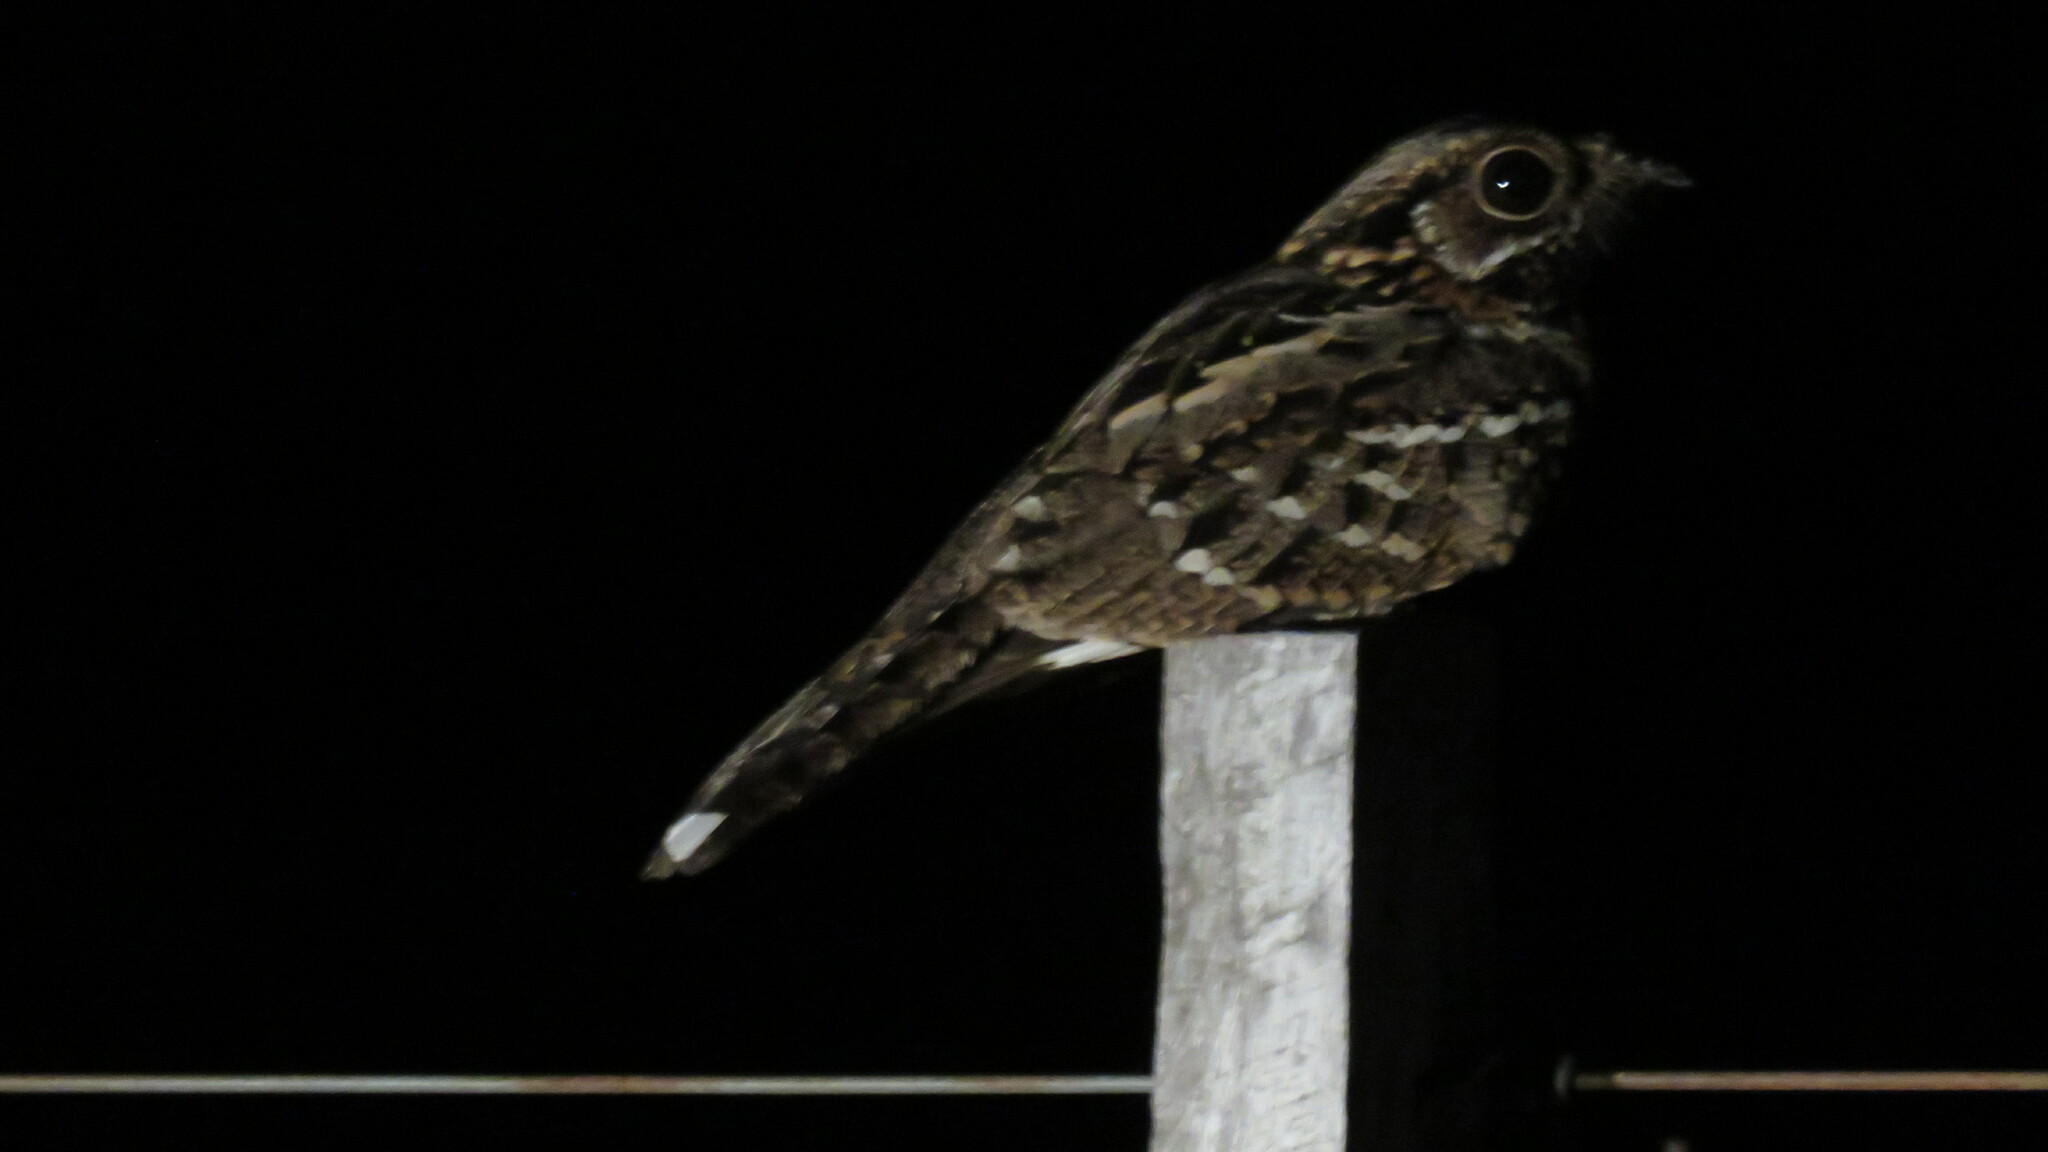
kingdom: Animalia
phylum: Chordata
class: Aves
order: Caprimulgiformes
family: Caprimulgidae
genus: Setopagis
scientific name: Setopagis parvula
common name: Little nightjar
